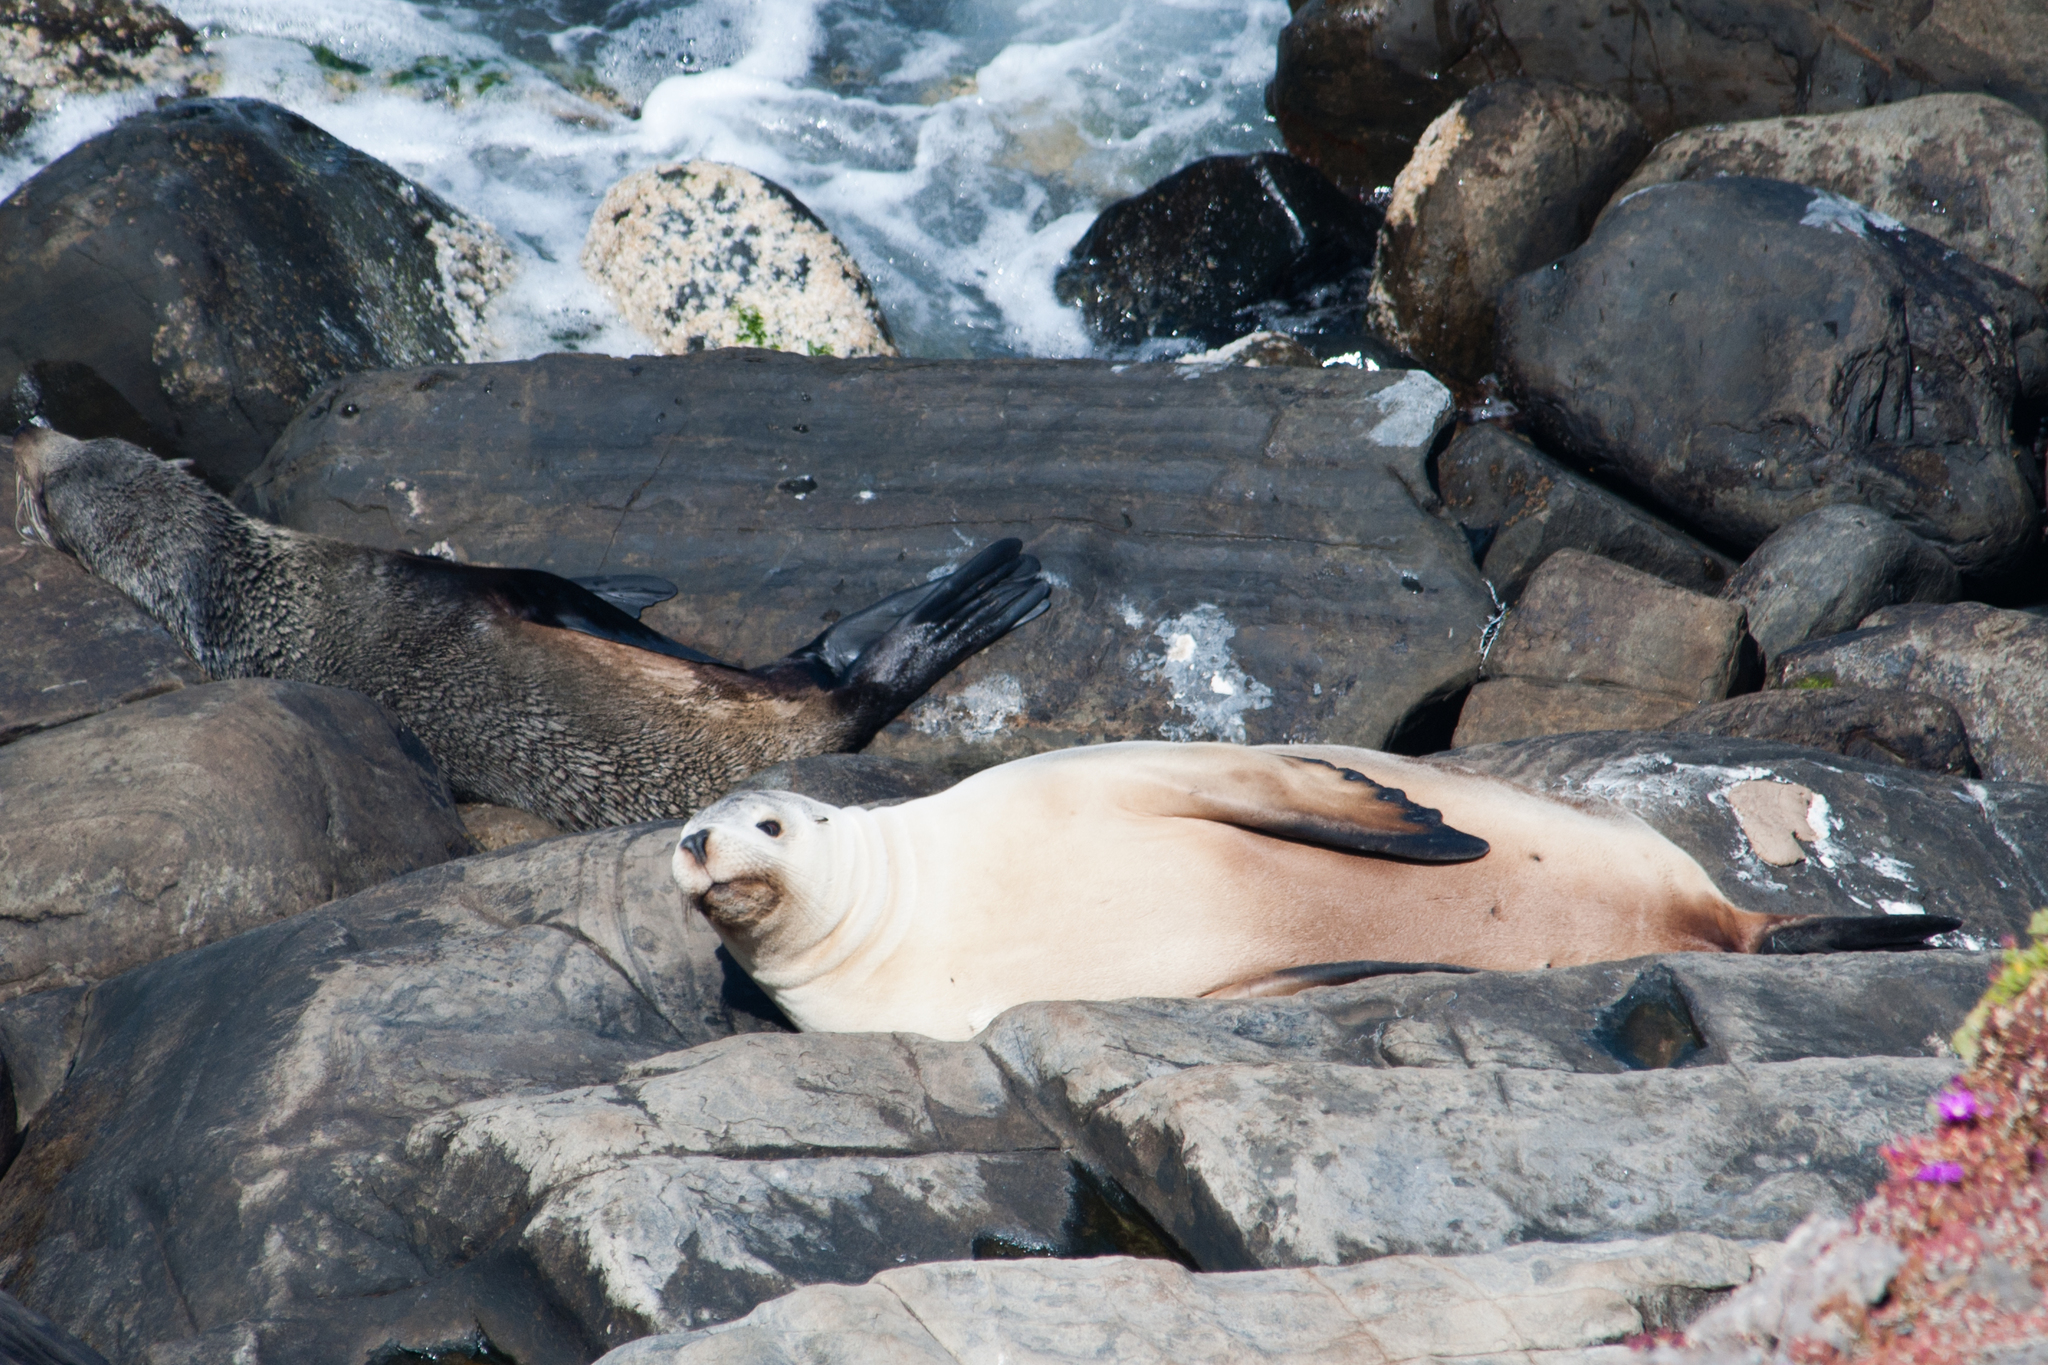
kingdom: Animalia
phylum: Chordata
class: Mammalia
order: Carnivora
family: Otariidae
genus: Neophoca
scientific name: Neophoca cinerea
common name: Australian sea lion
